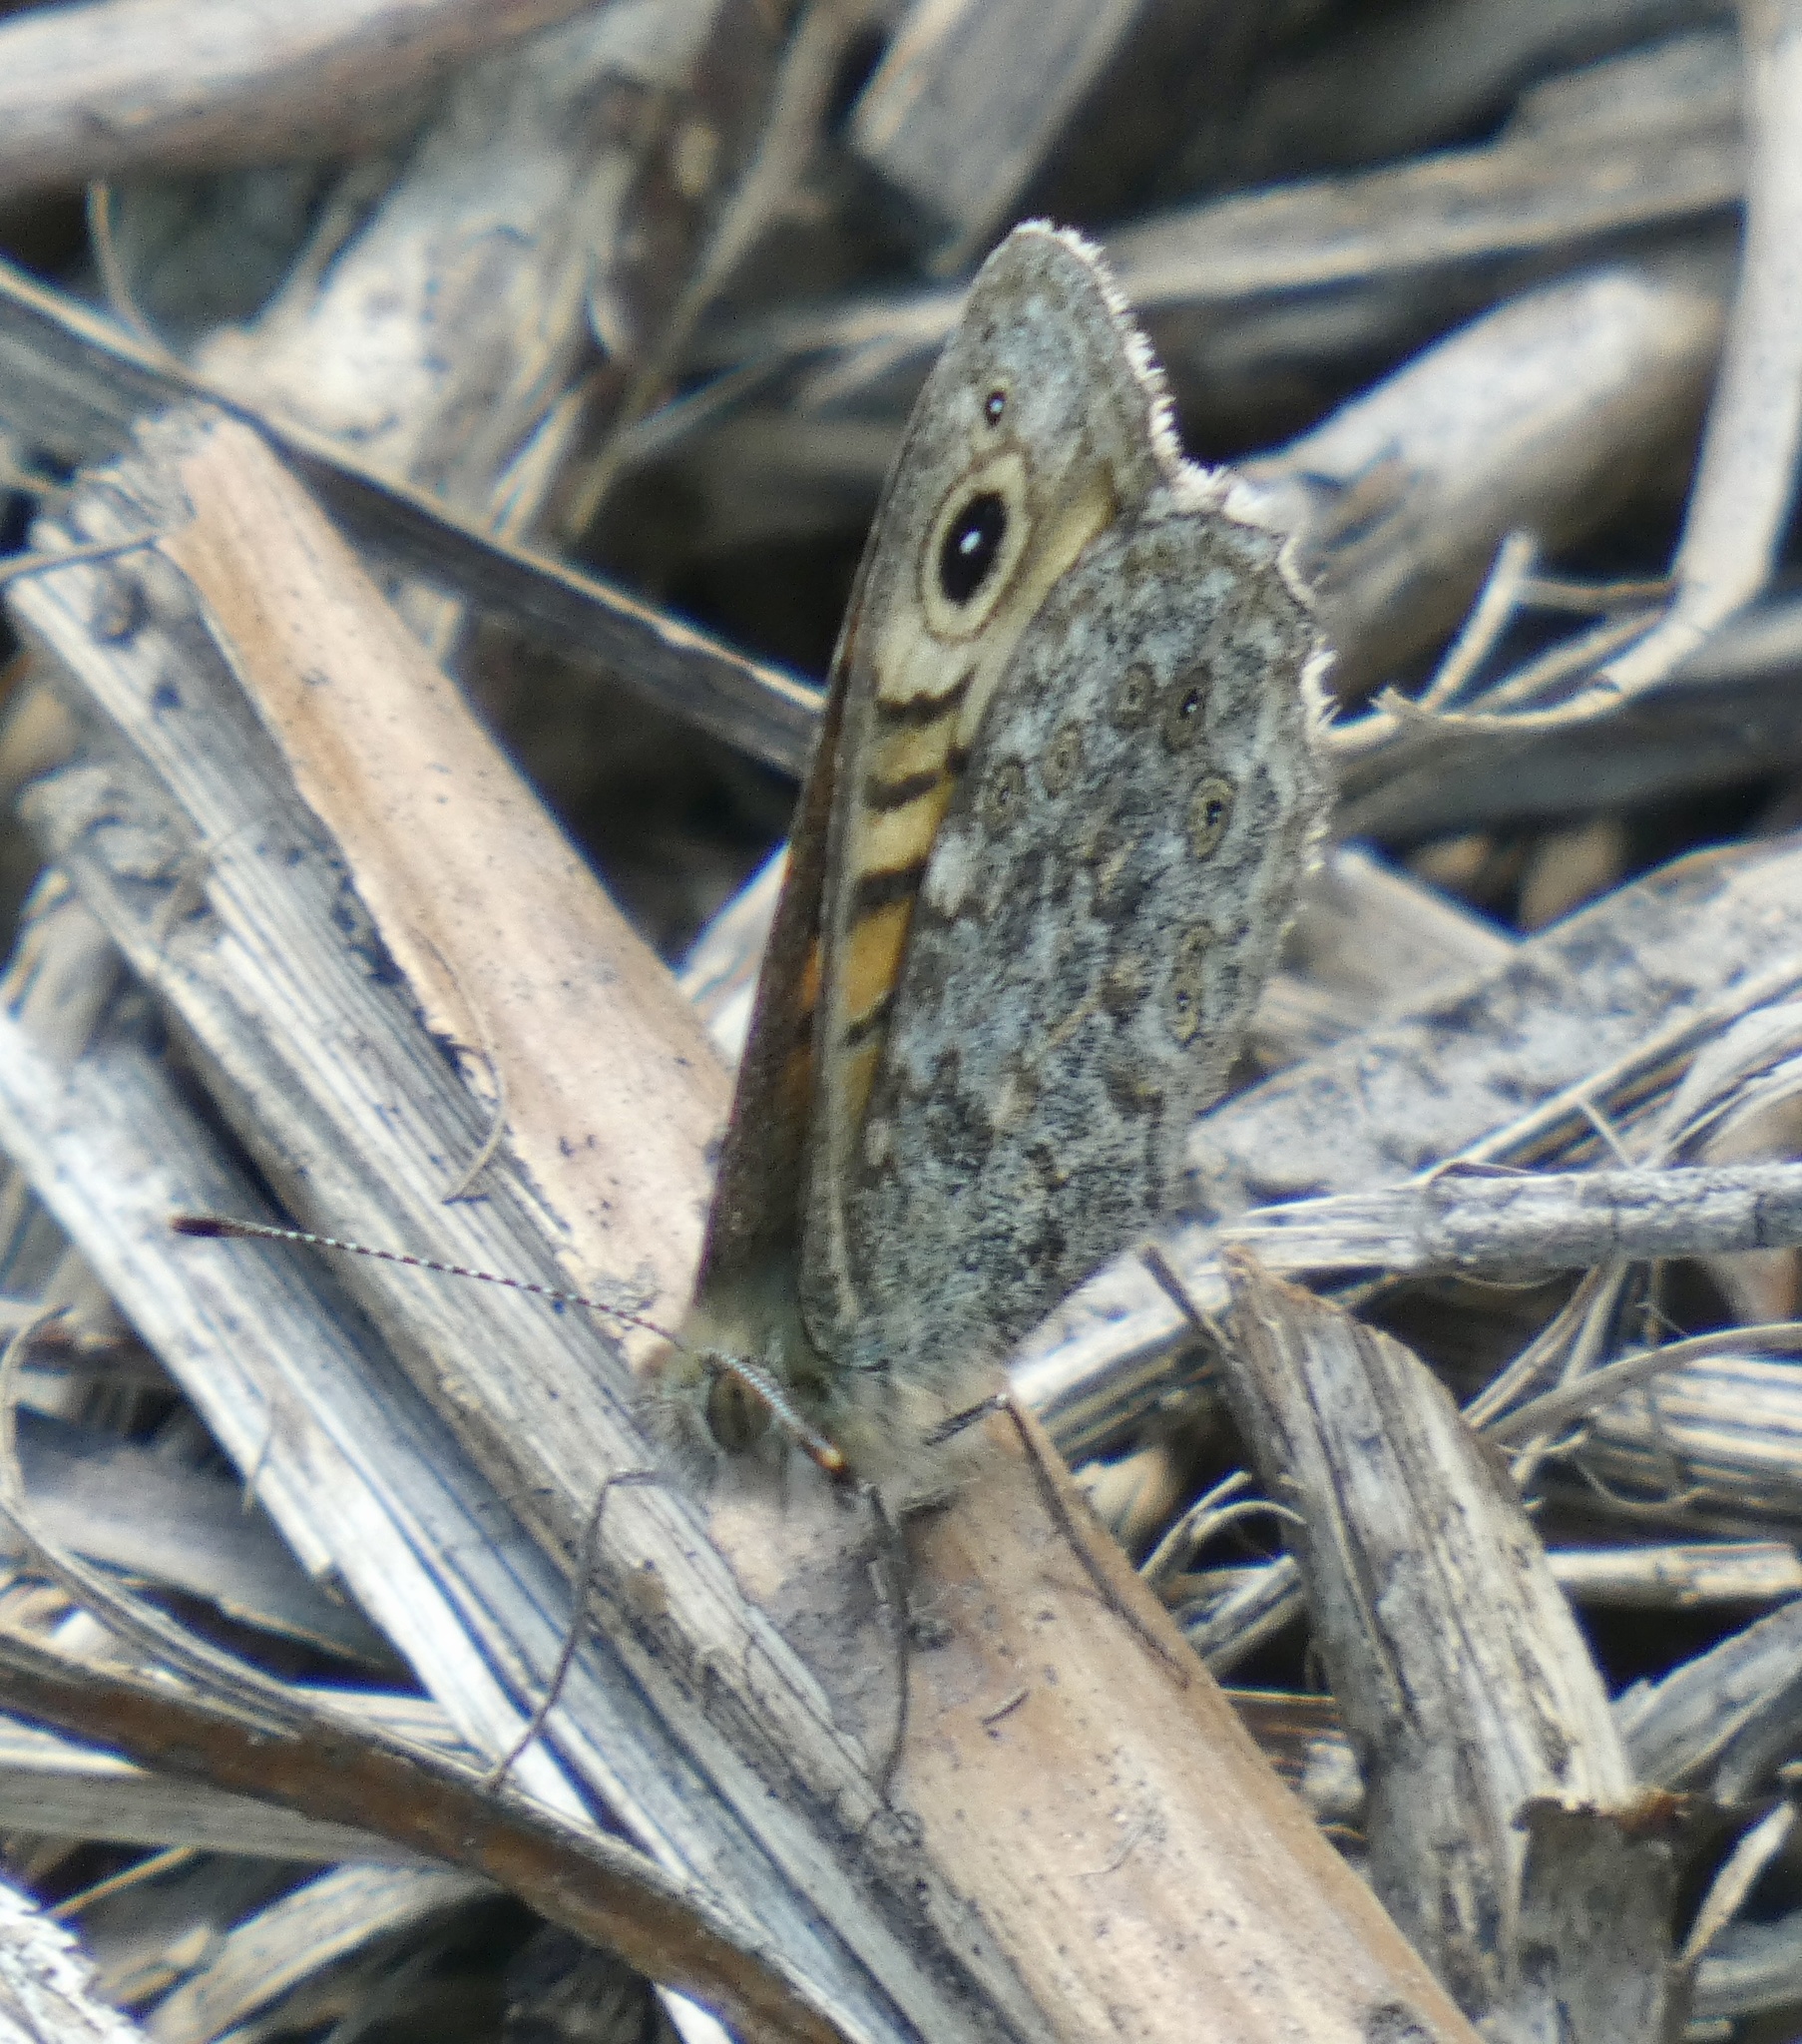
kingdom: Animalia
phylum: Arthropoda
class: Insecta
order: Lepidoptera
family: Nymphalidae
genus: Pararge
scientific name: Pararge Lasiommata megera
